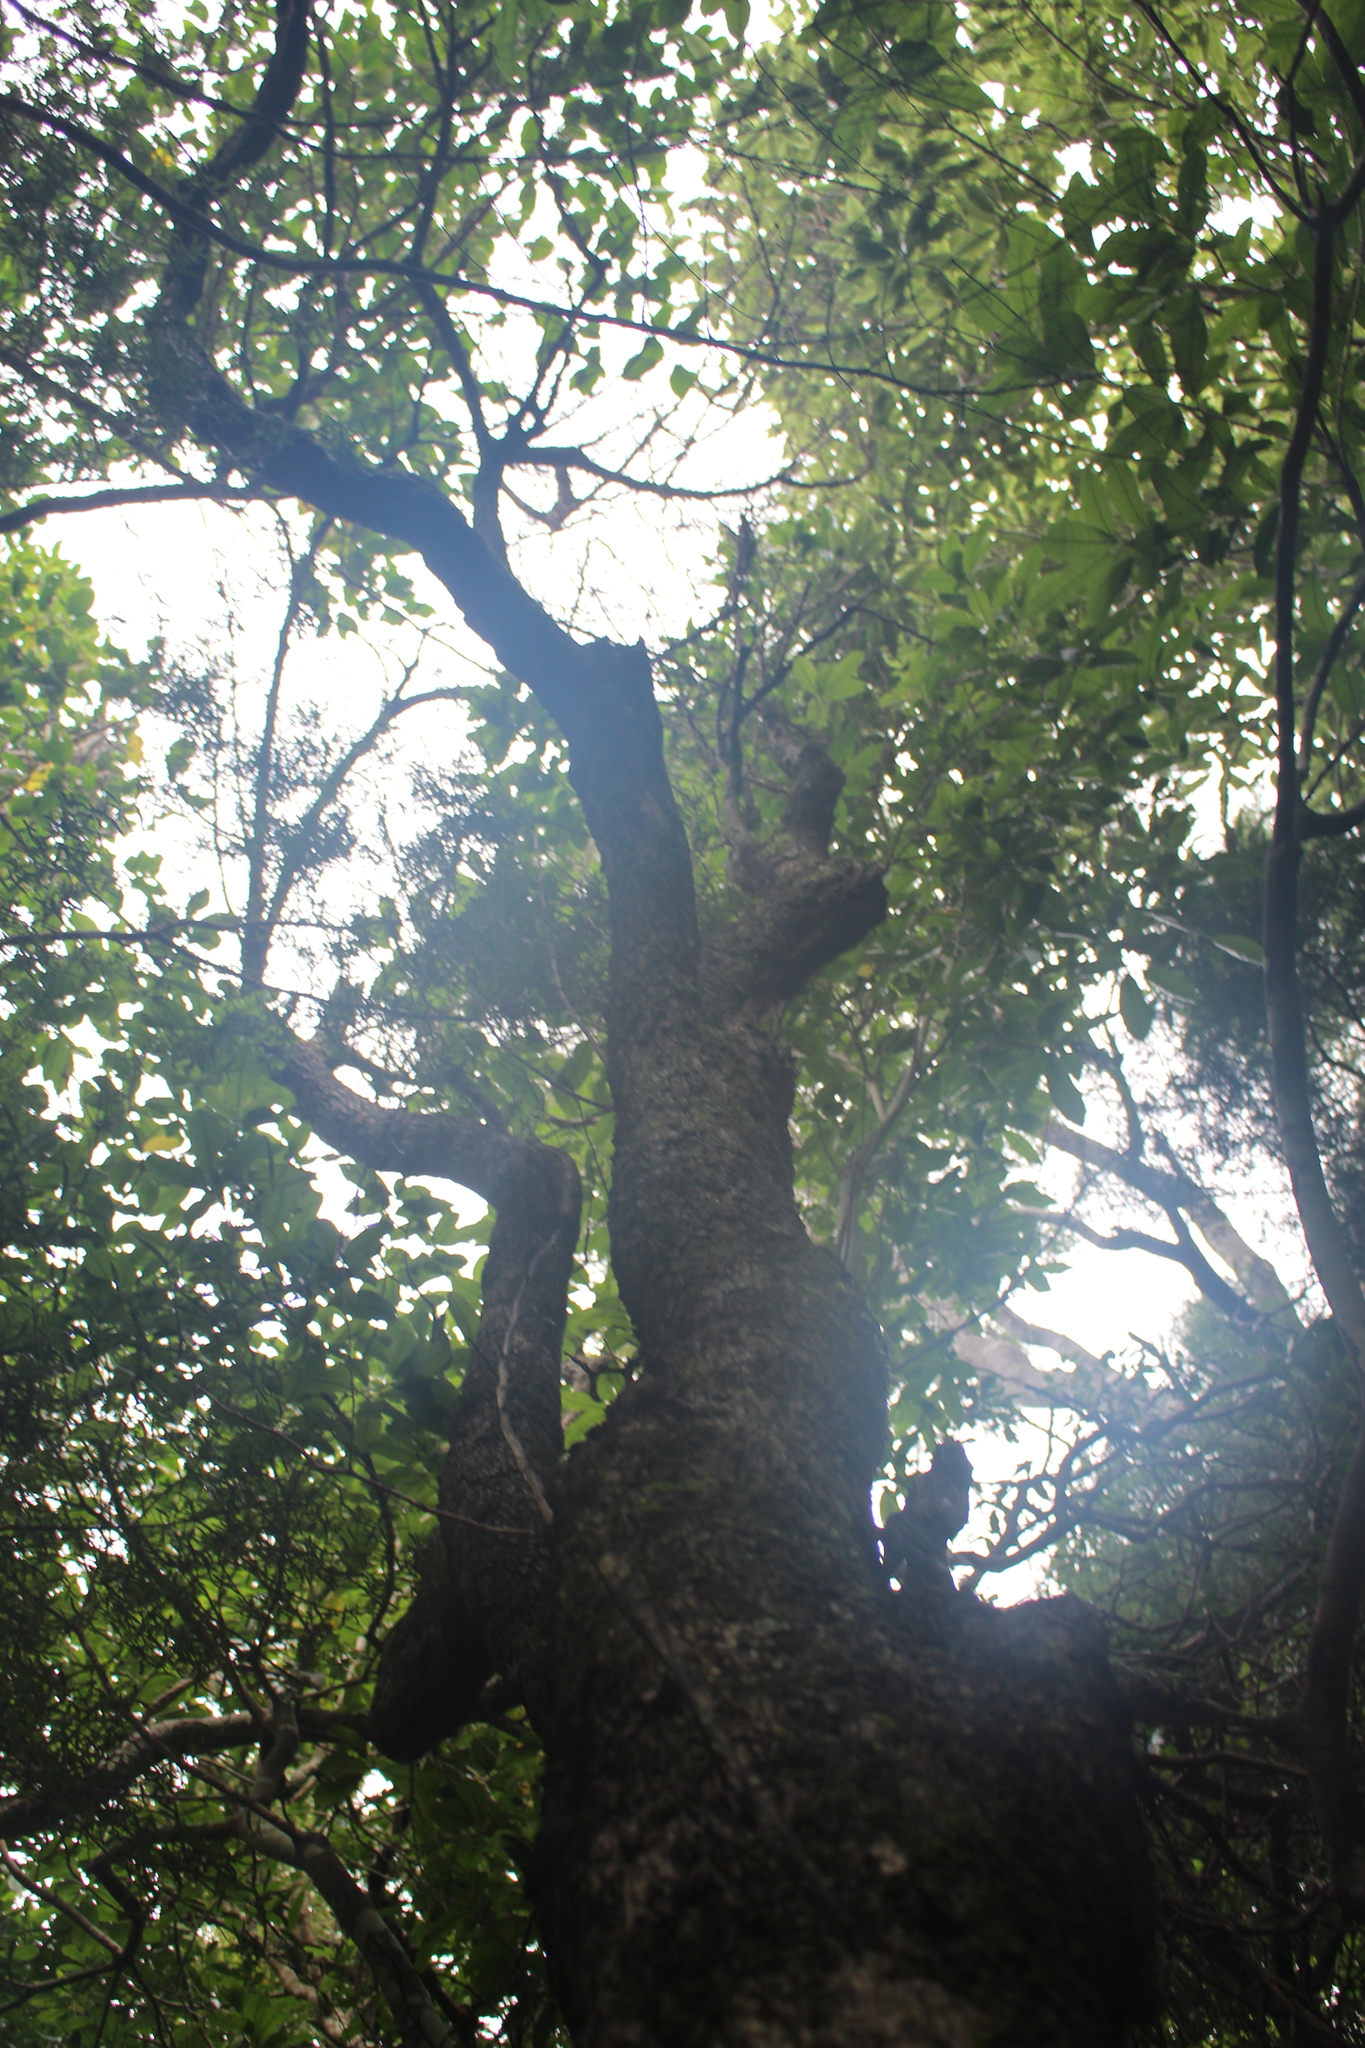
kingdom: Plantae
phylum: Tracheophyta
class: Magnoliopsida
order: Gentianales
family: Rubiaceae
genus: Coprosma
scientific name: Coprosma linariifolia
